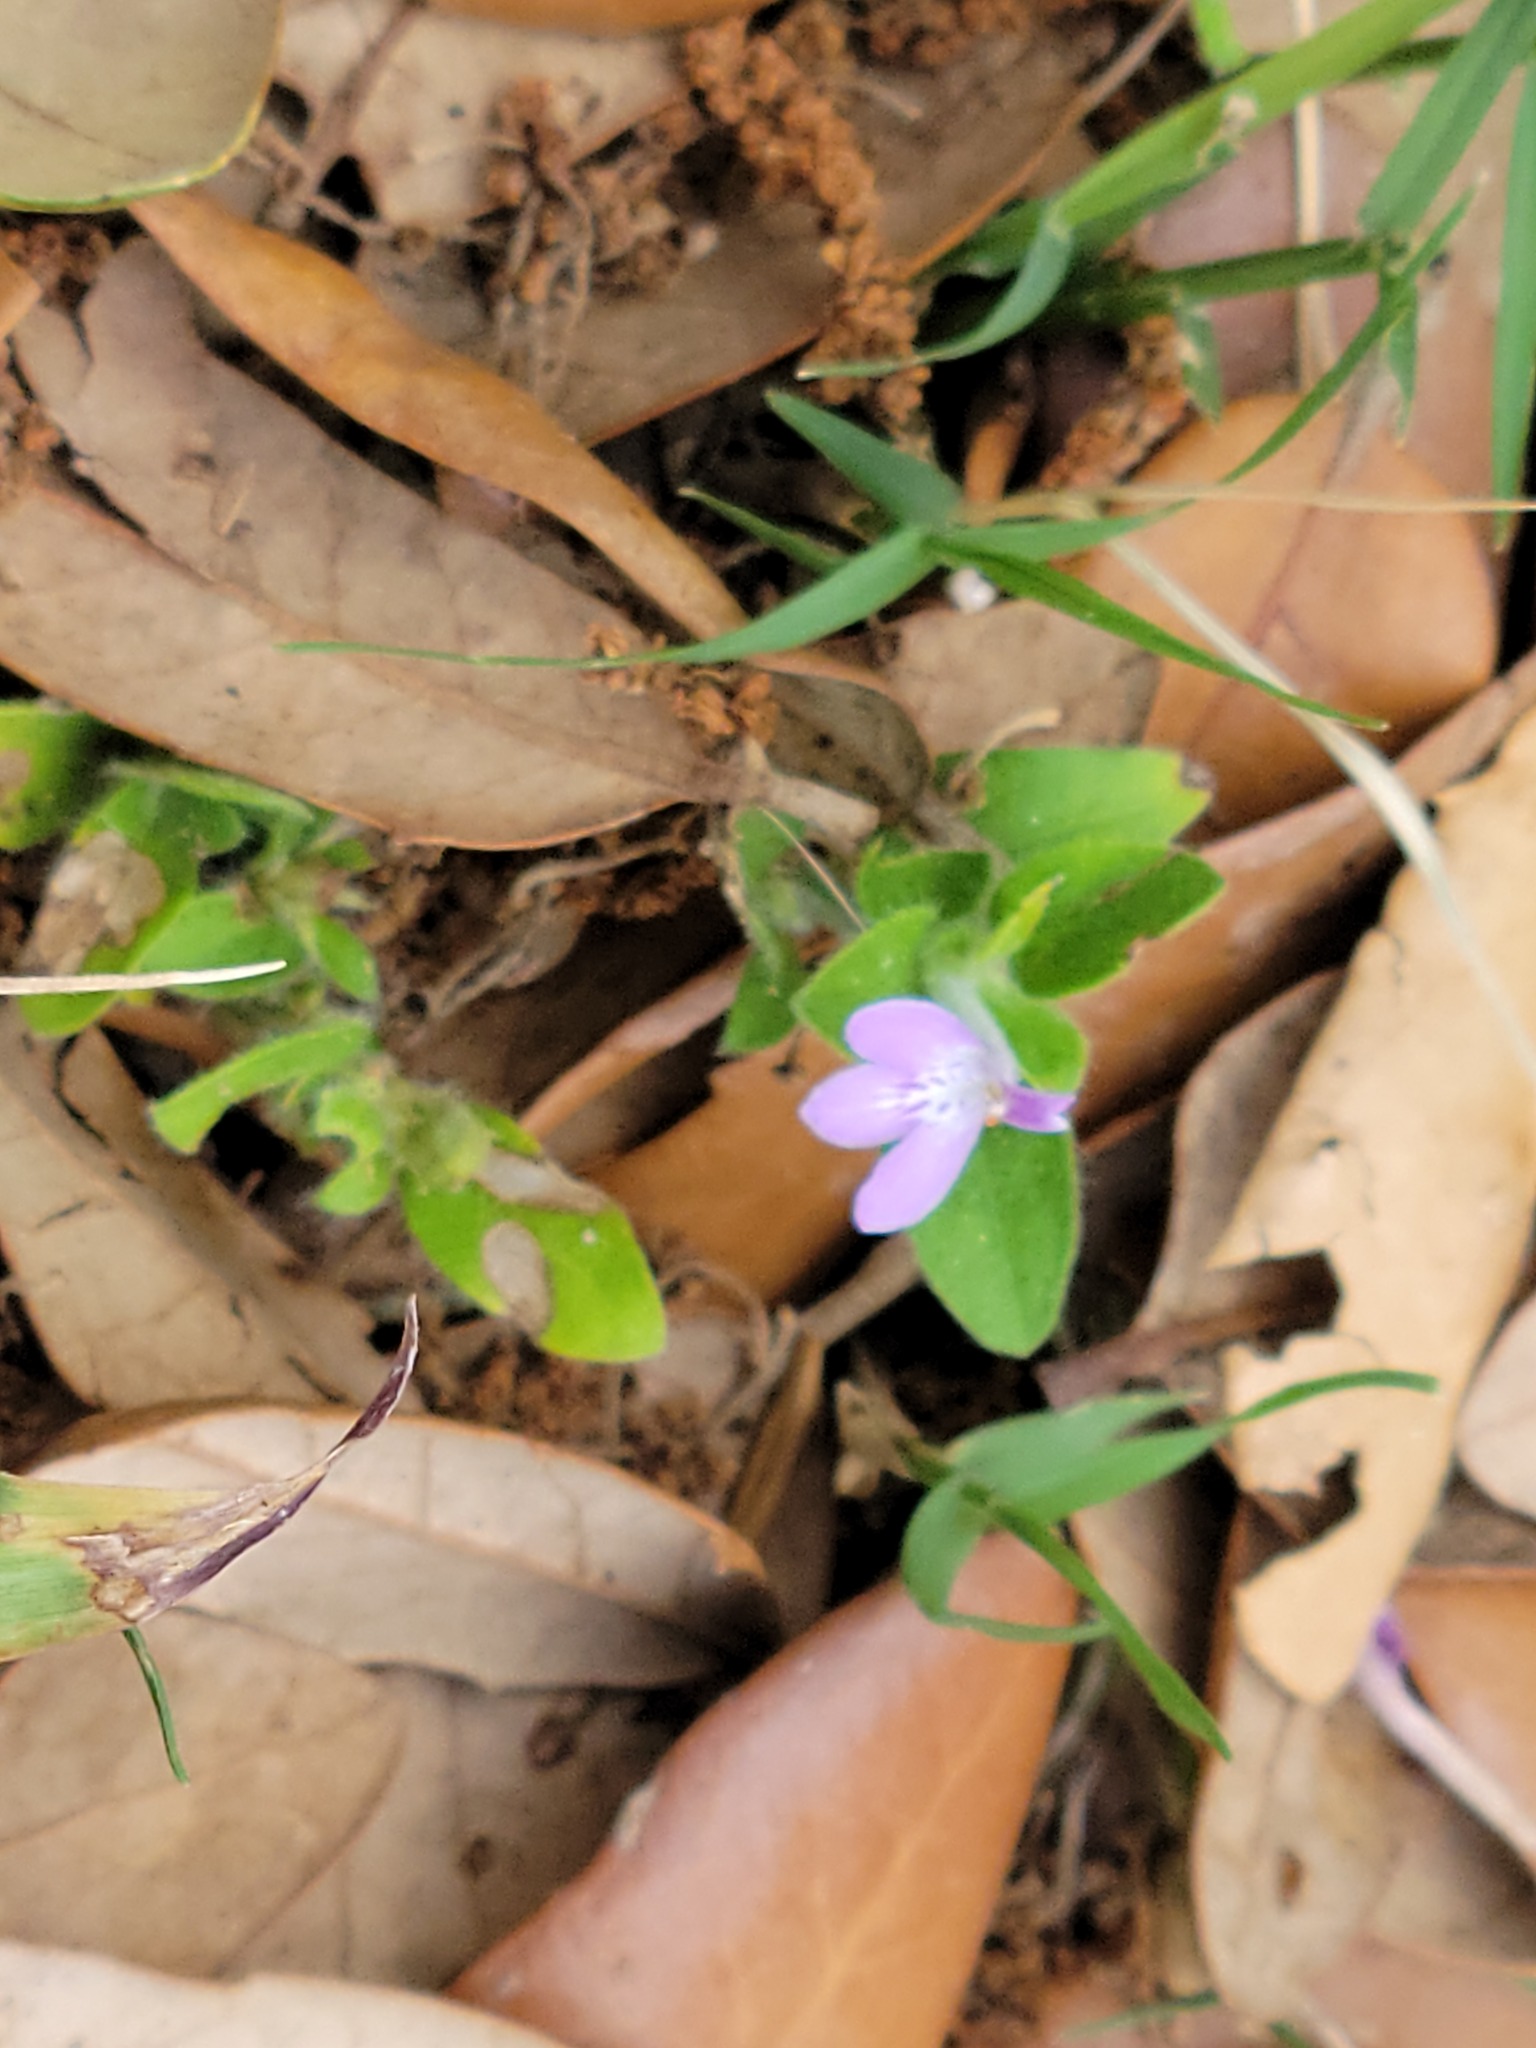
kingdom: Plantae
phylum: Tracheophyta
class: Magnoliopsida
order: Lamiales
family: Acanthaceae
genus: Justicia
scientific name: Justicia pilosella
